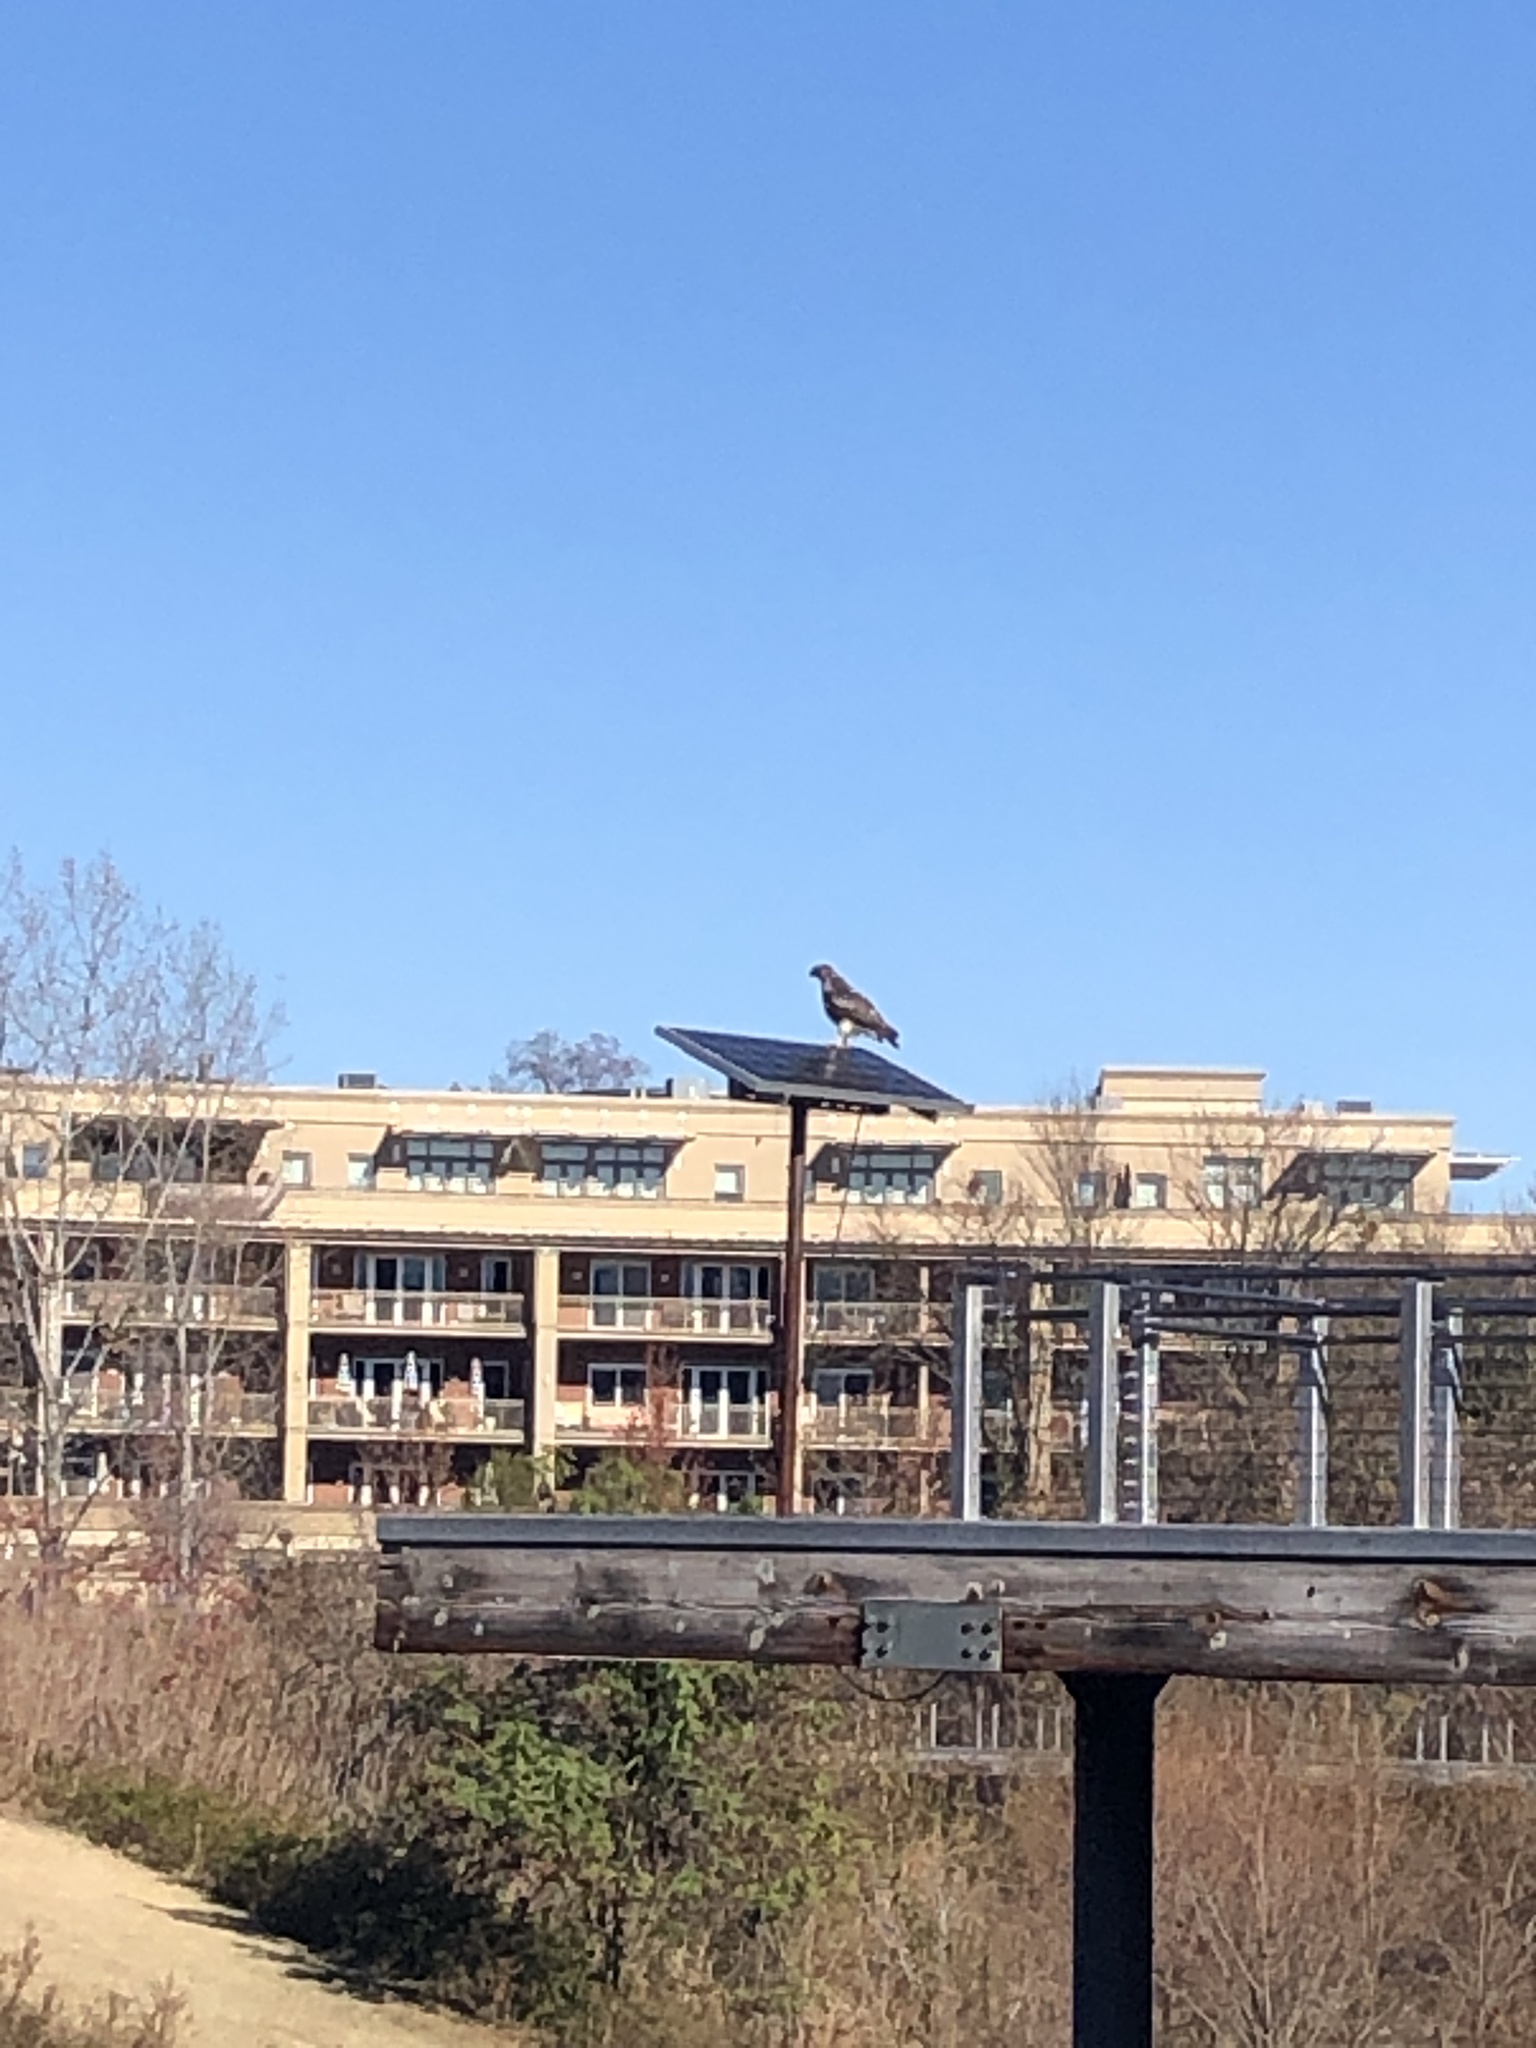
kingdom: Animalia
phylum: Chordata
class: Aves
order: Accipitriformes
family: Accipitridae
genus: Buteo
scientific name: Buteo jamaicensis
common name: Red-tailed hawk
